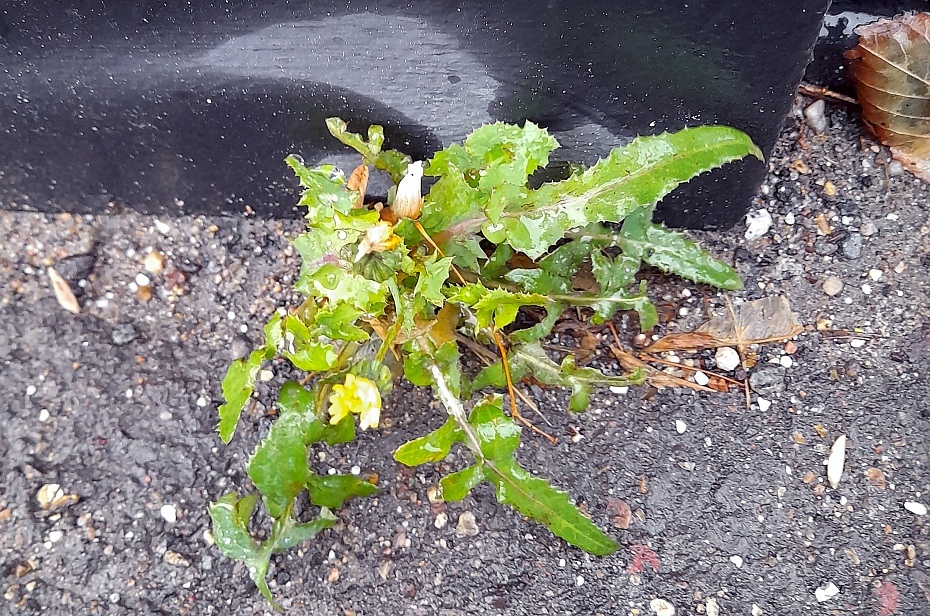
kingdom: Plantae
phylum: Tracheophyta
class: Magnoliopsida
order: Asterales
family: Asteraceae
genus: Sonchus
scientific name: Sonchus oleraceus
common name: Common sowthistle
